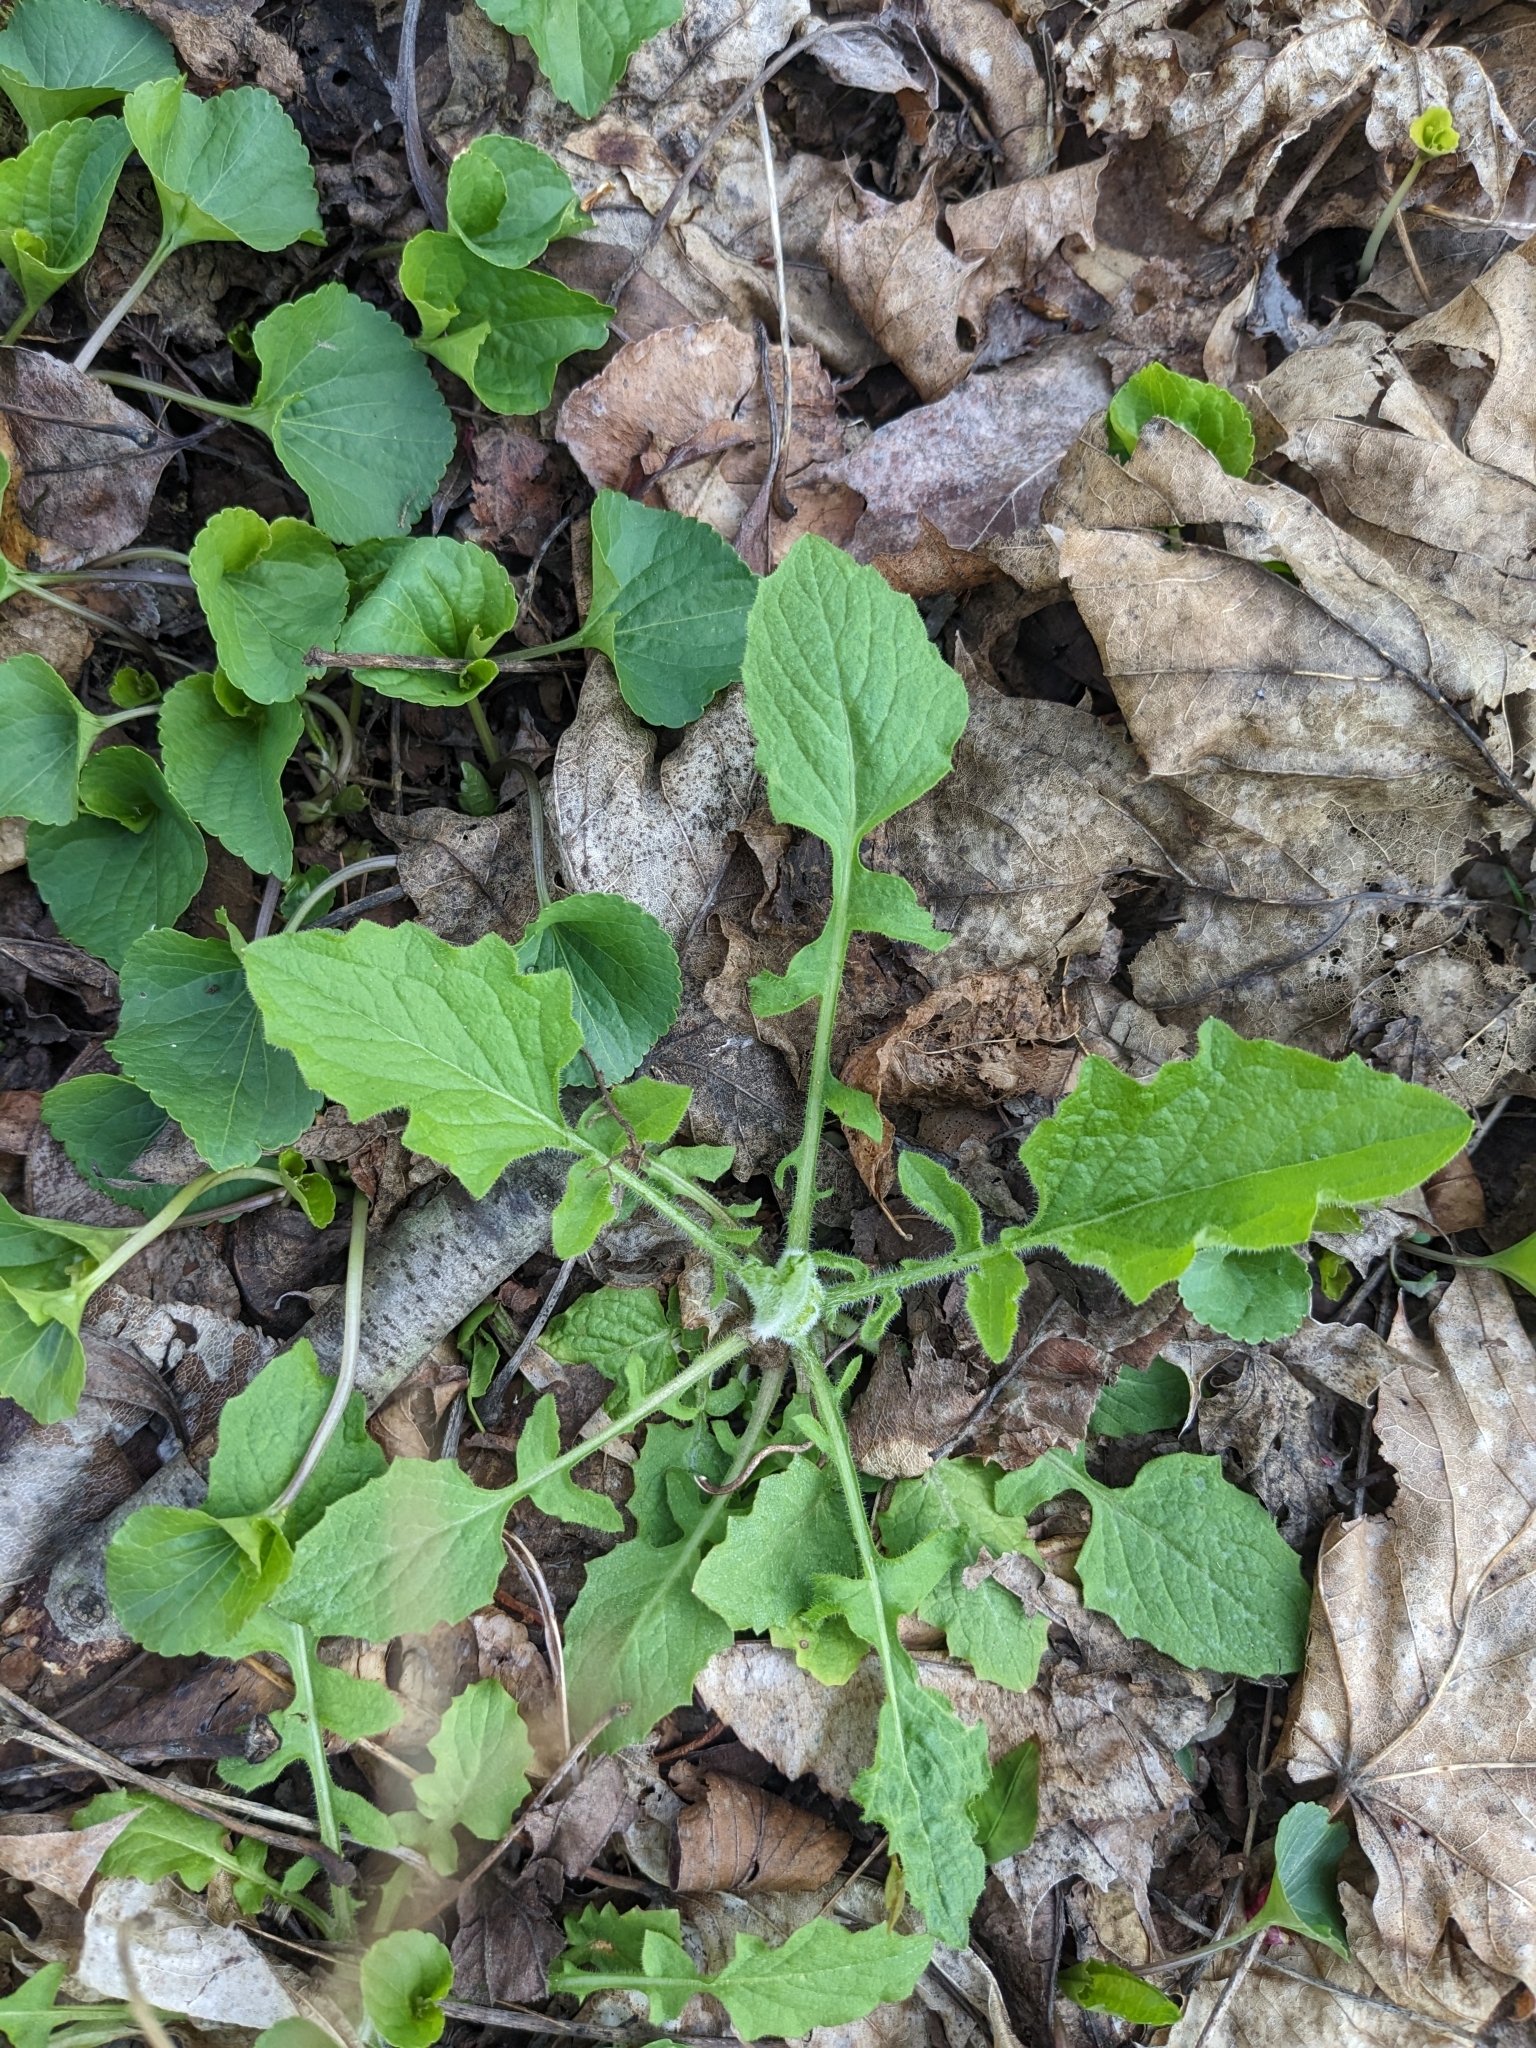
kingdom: Plantae
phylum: Tracheophyta
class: Magnoliopsida
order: Asterales
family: Asteraceae
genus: Lapsana
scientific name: Lapsana communis
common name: Nipplewort
